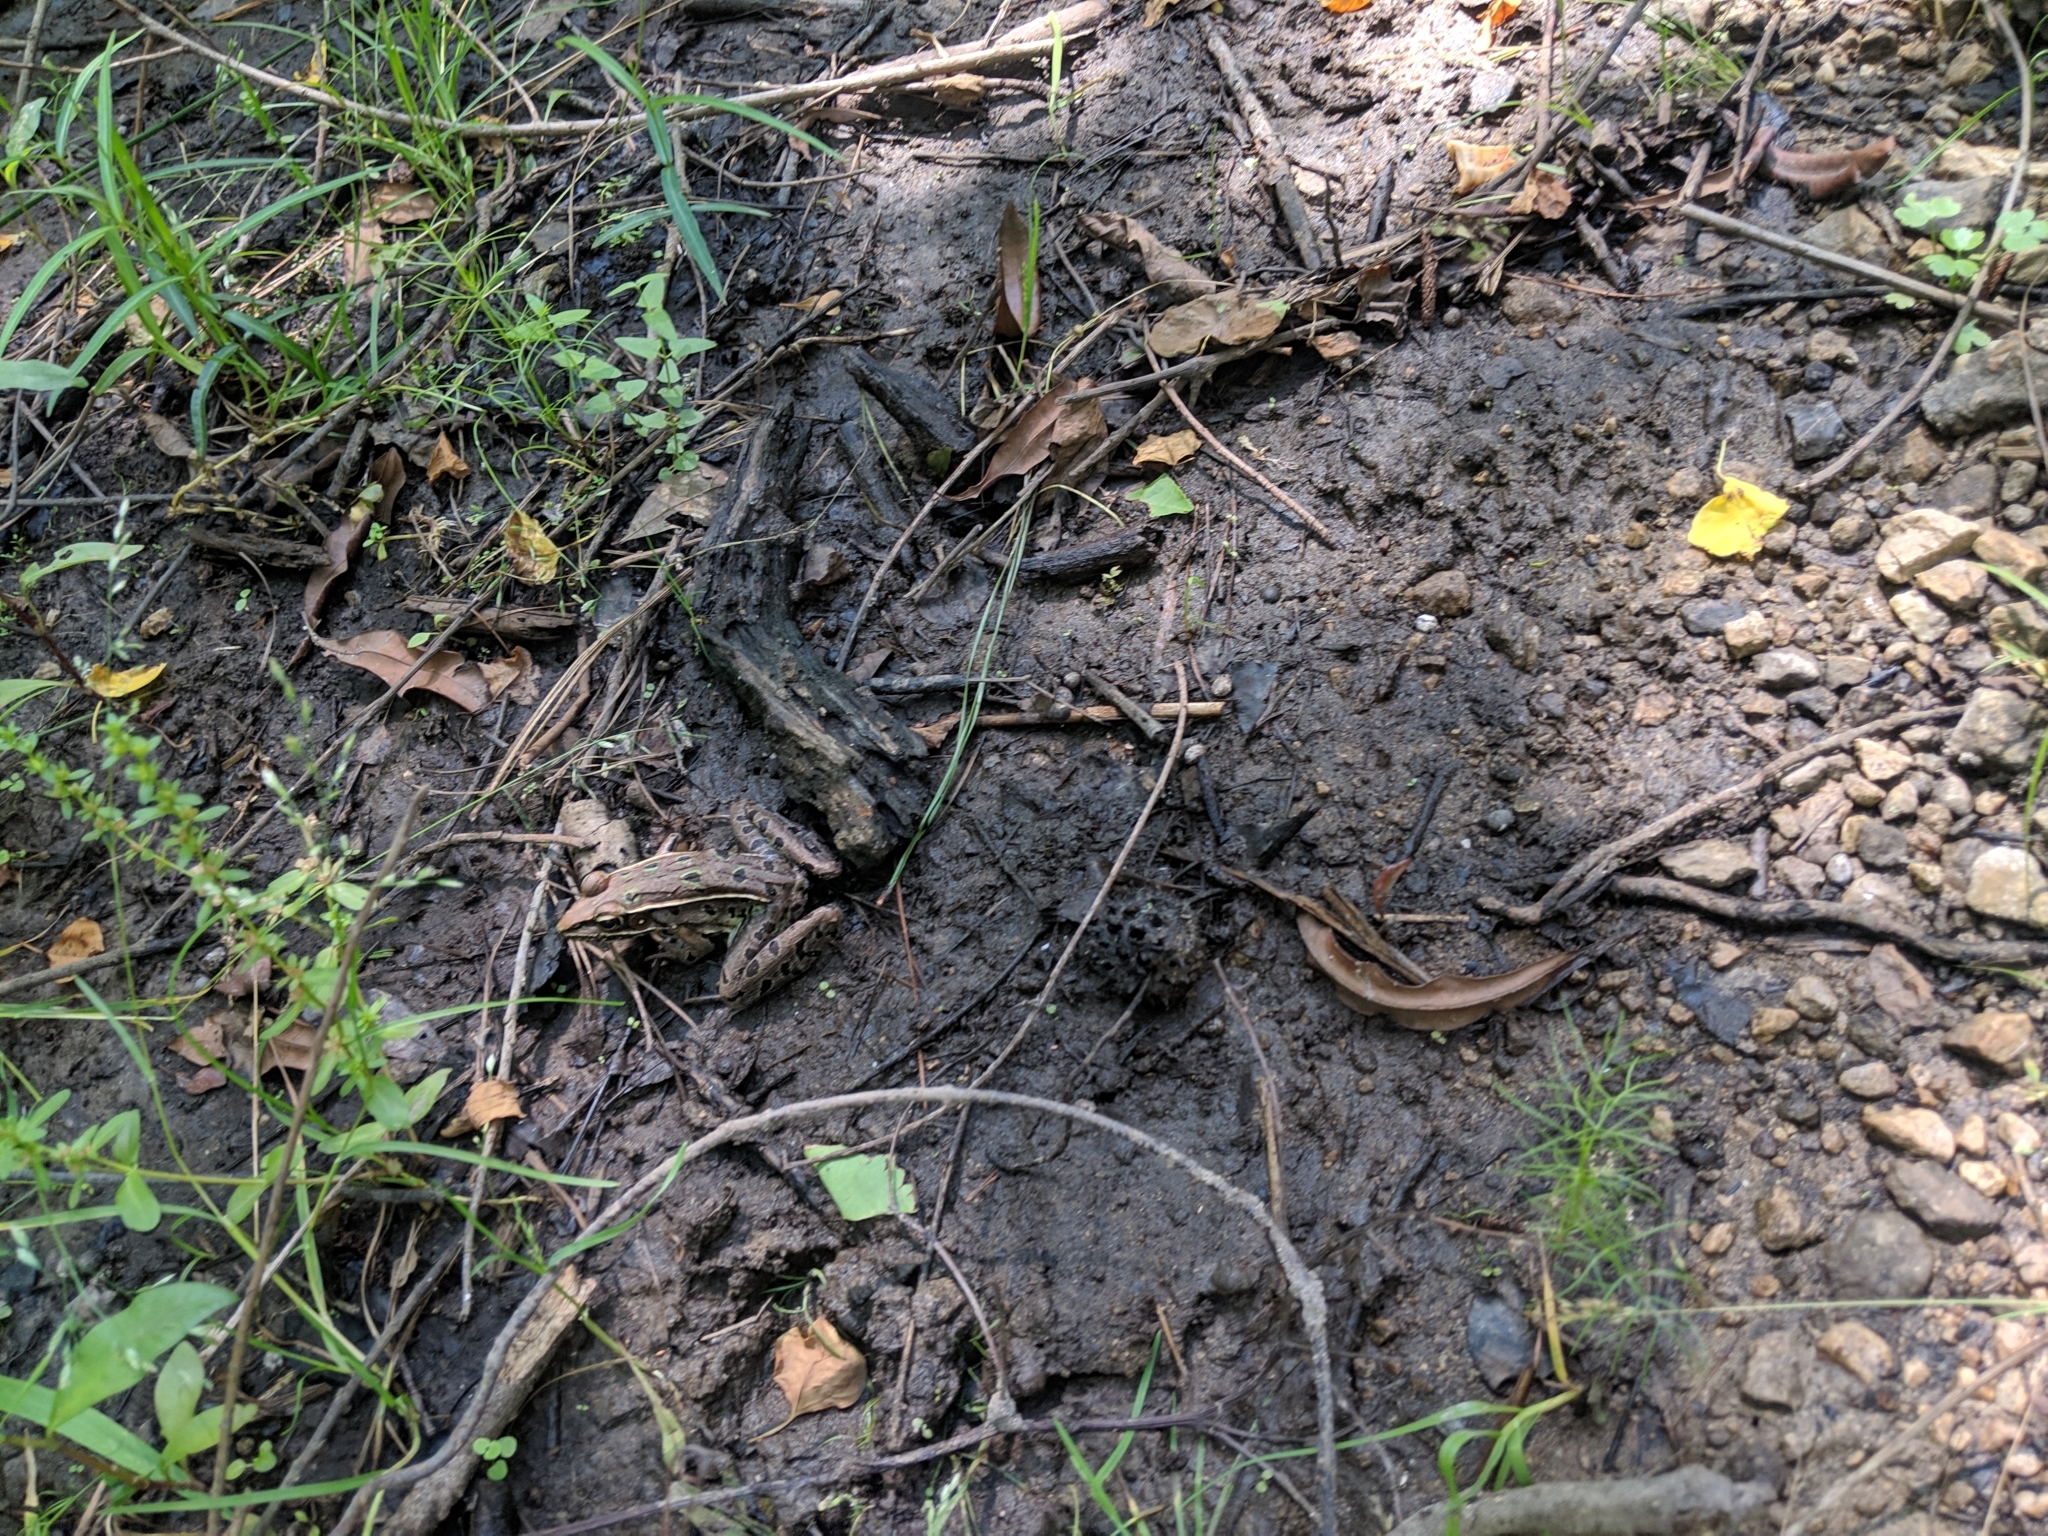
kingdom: Animalia
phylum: Chordata
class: Amphibia
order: Anura
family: Ranidae
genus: Lithobates
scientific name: Lithobates sphenocephalus
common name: Southern leopard frog
